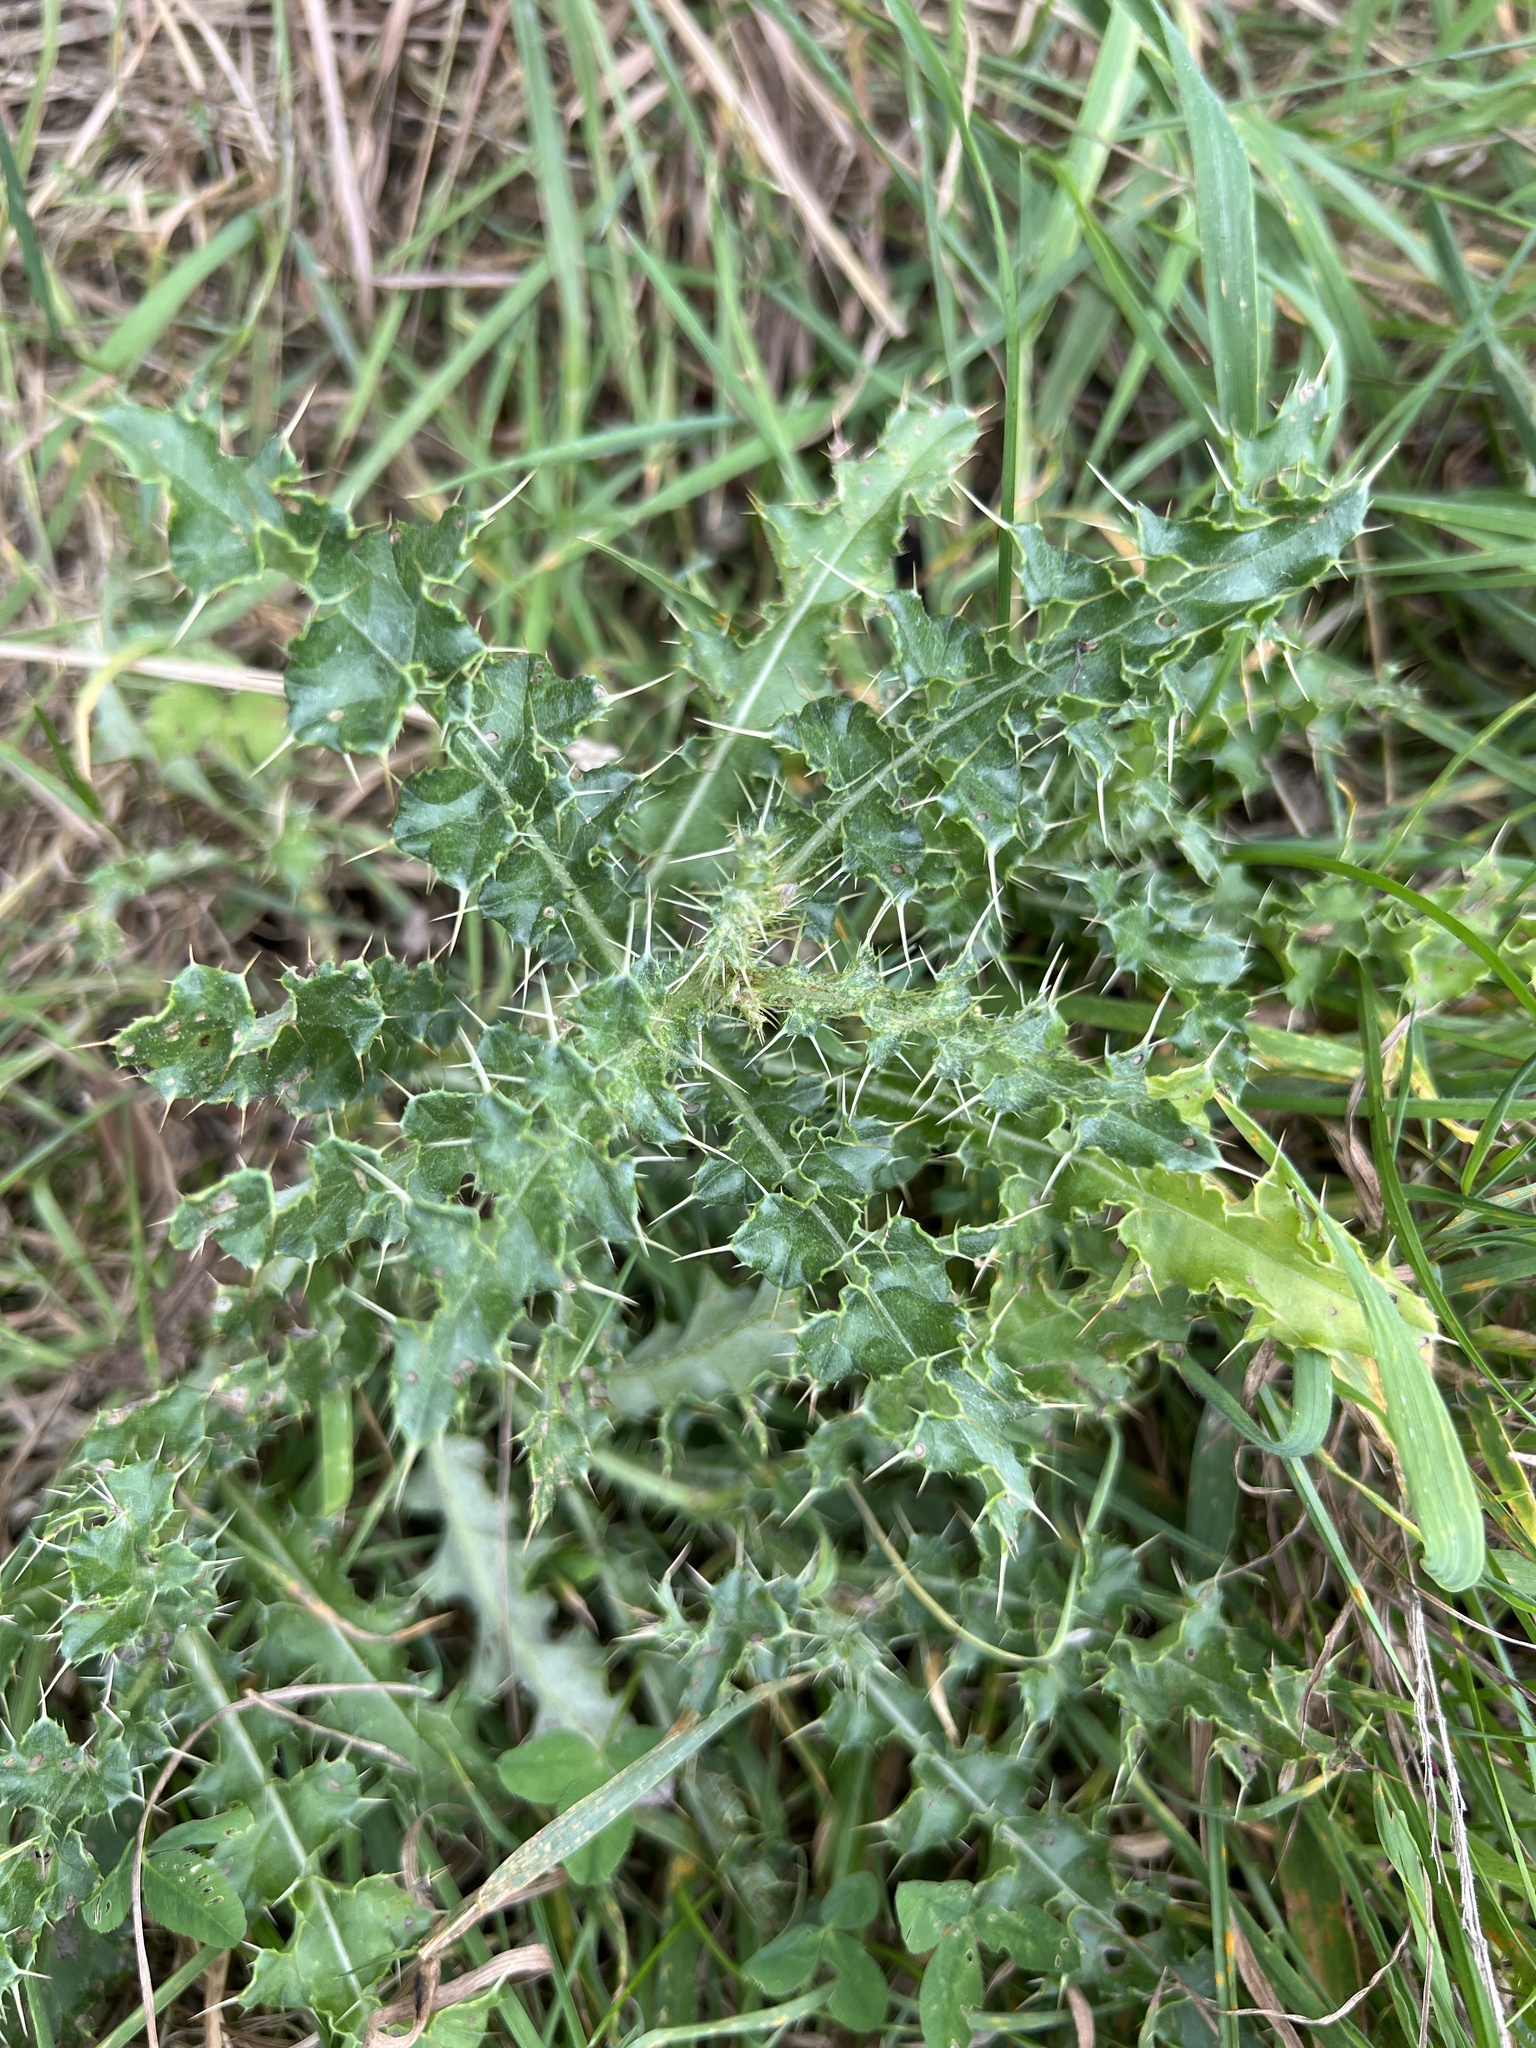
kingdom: Plantae
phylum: Tracheophyta
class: Magnoliopsida
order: Asterales
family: Asteraceae
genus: Cirsium
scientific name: Cirsium arvense
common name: Creeping thistle
